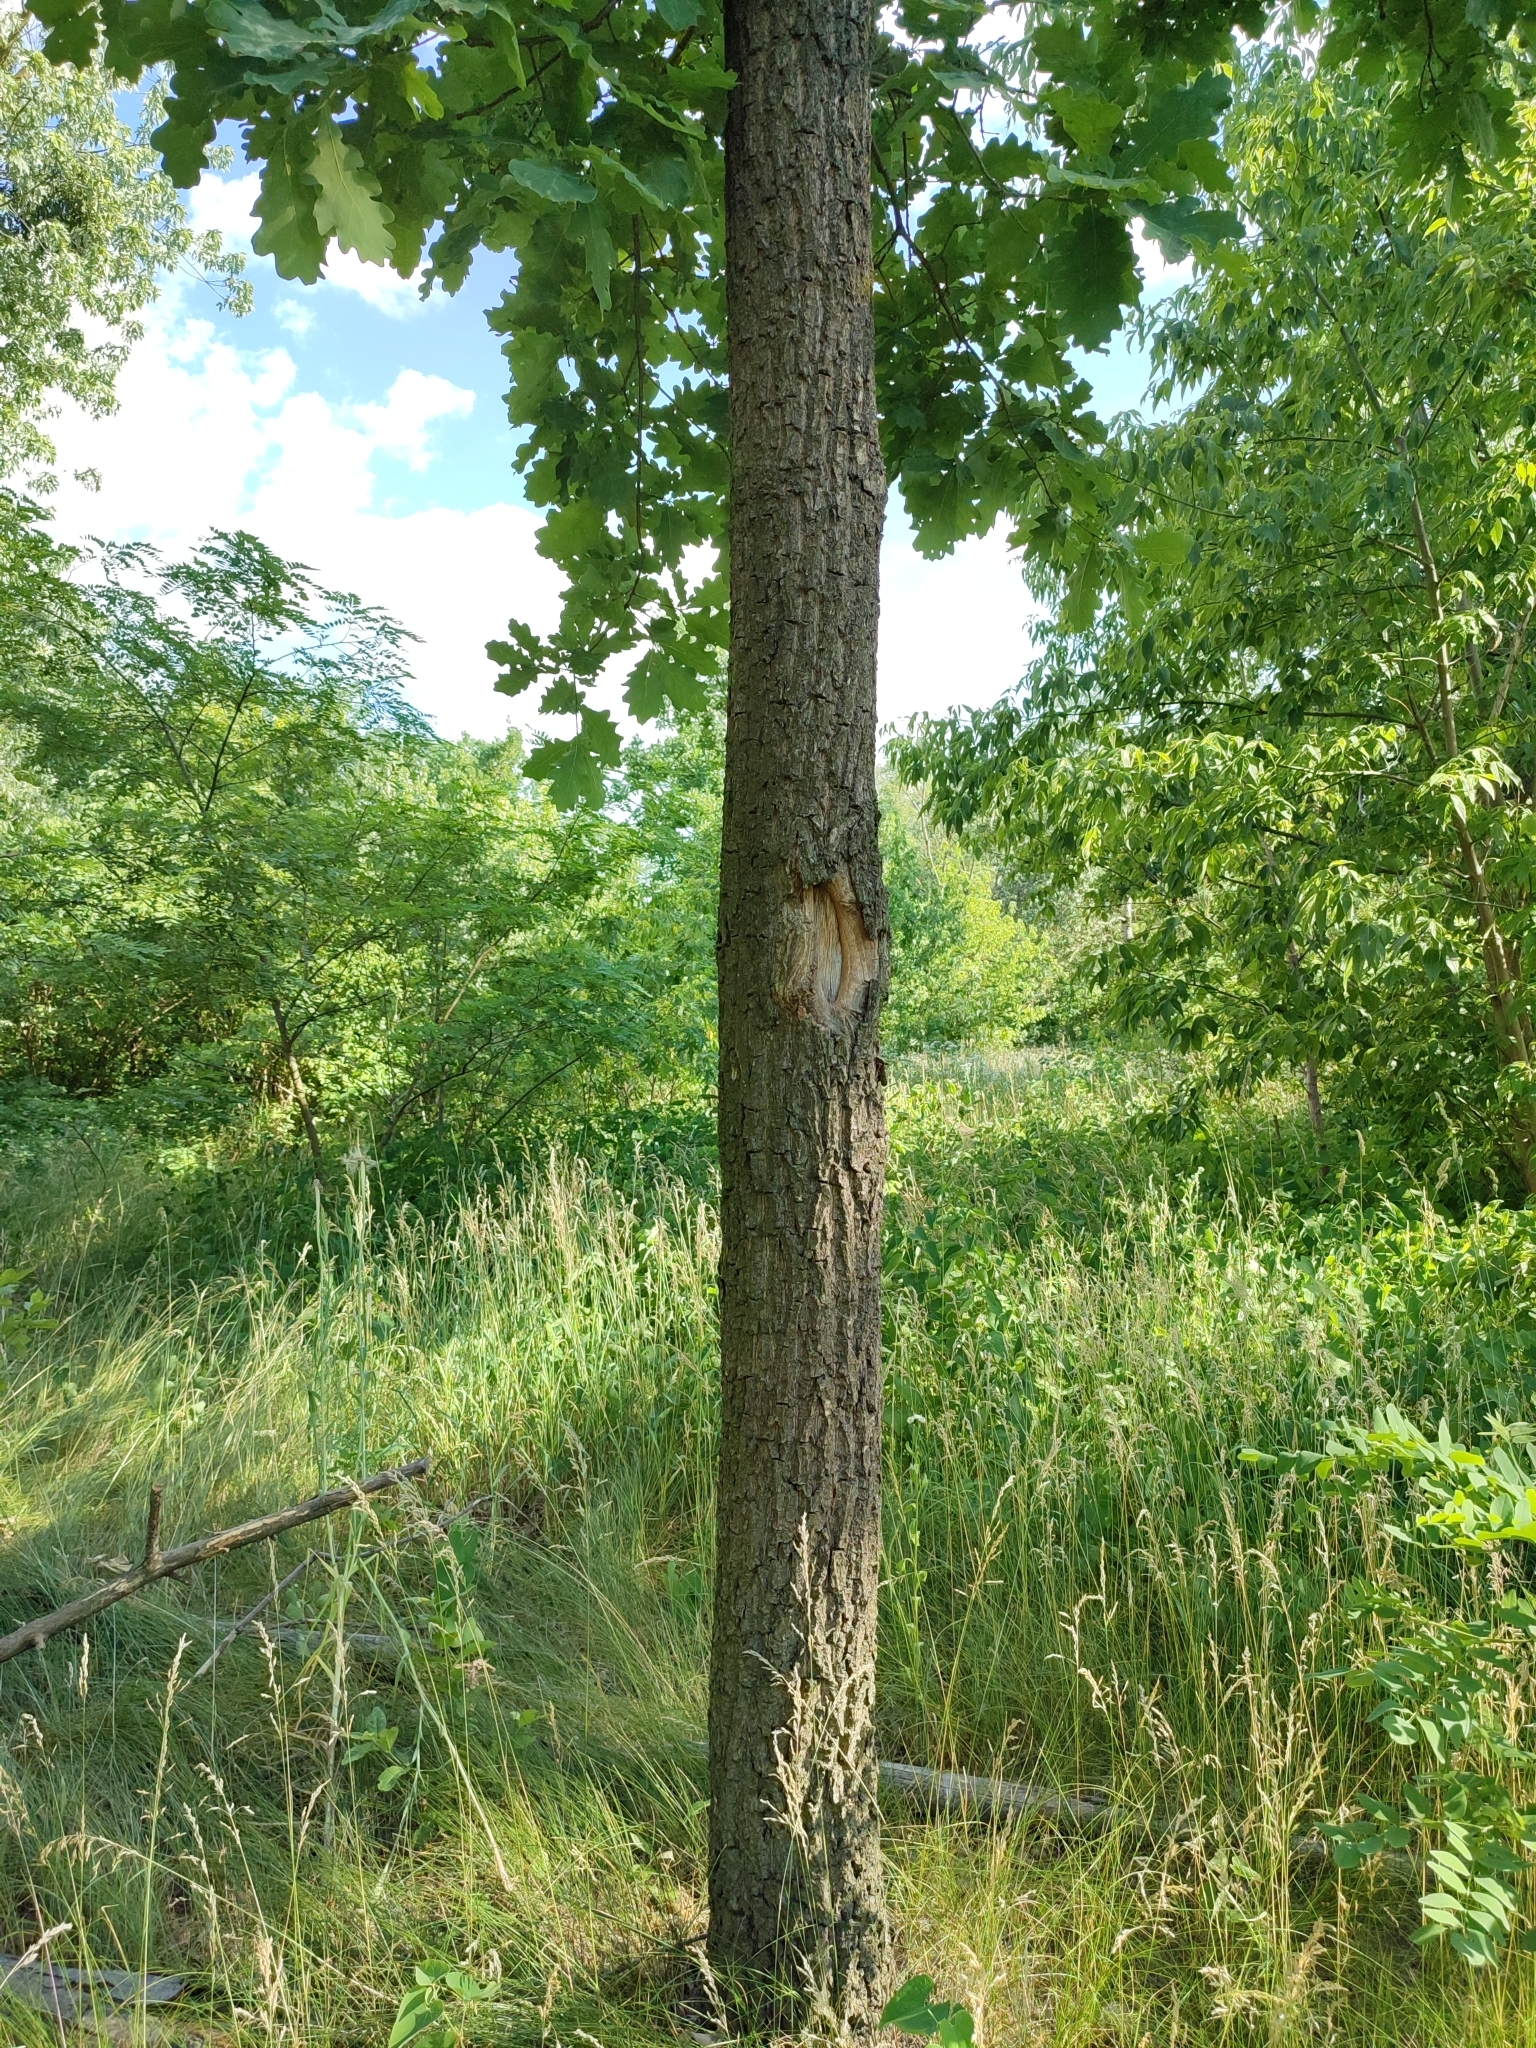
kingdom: Plantae
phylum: Tracheophyta
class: Magnoliopsida
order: Fagales
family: Fagaceae
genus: Quercus
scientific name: Quercus robur
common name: Pedunculate oak
